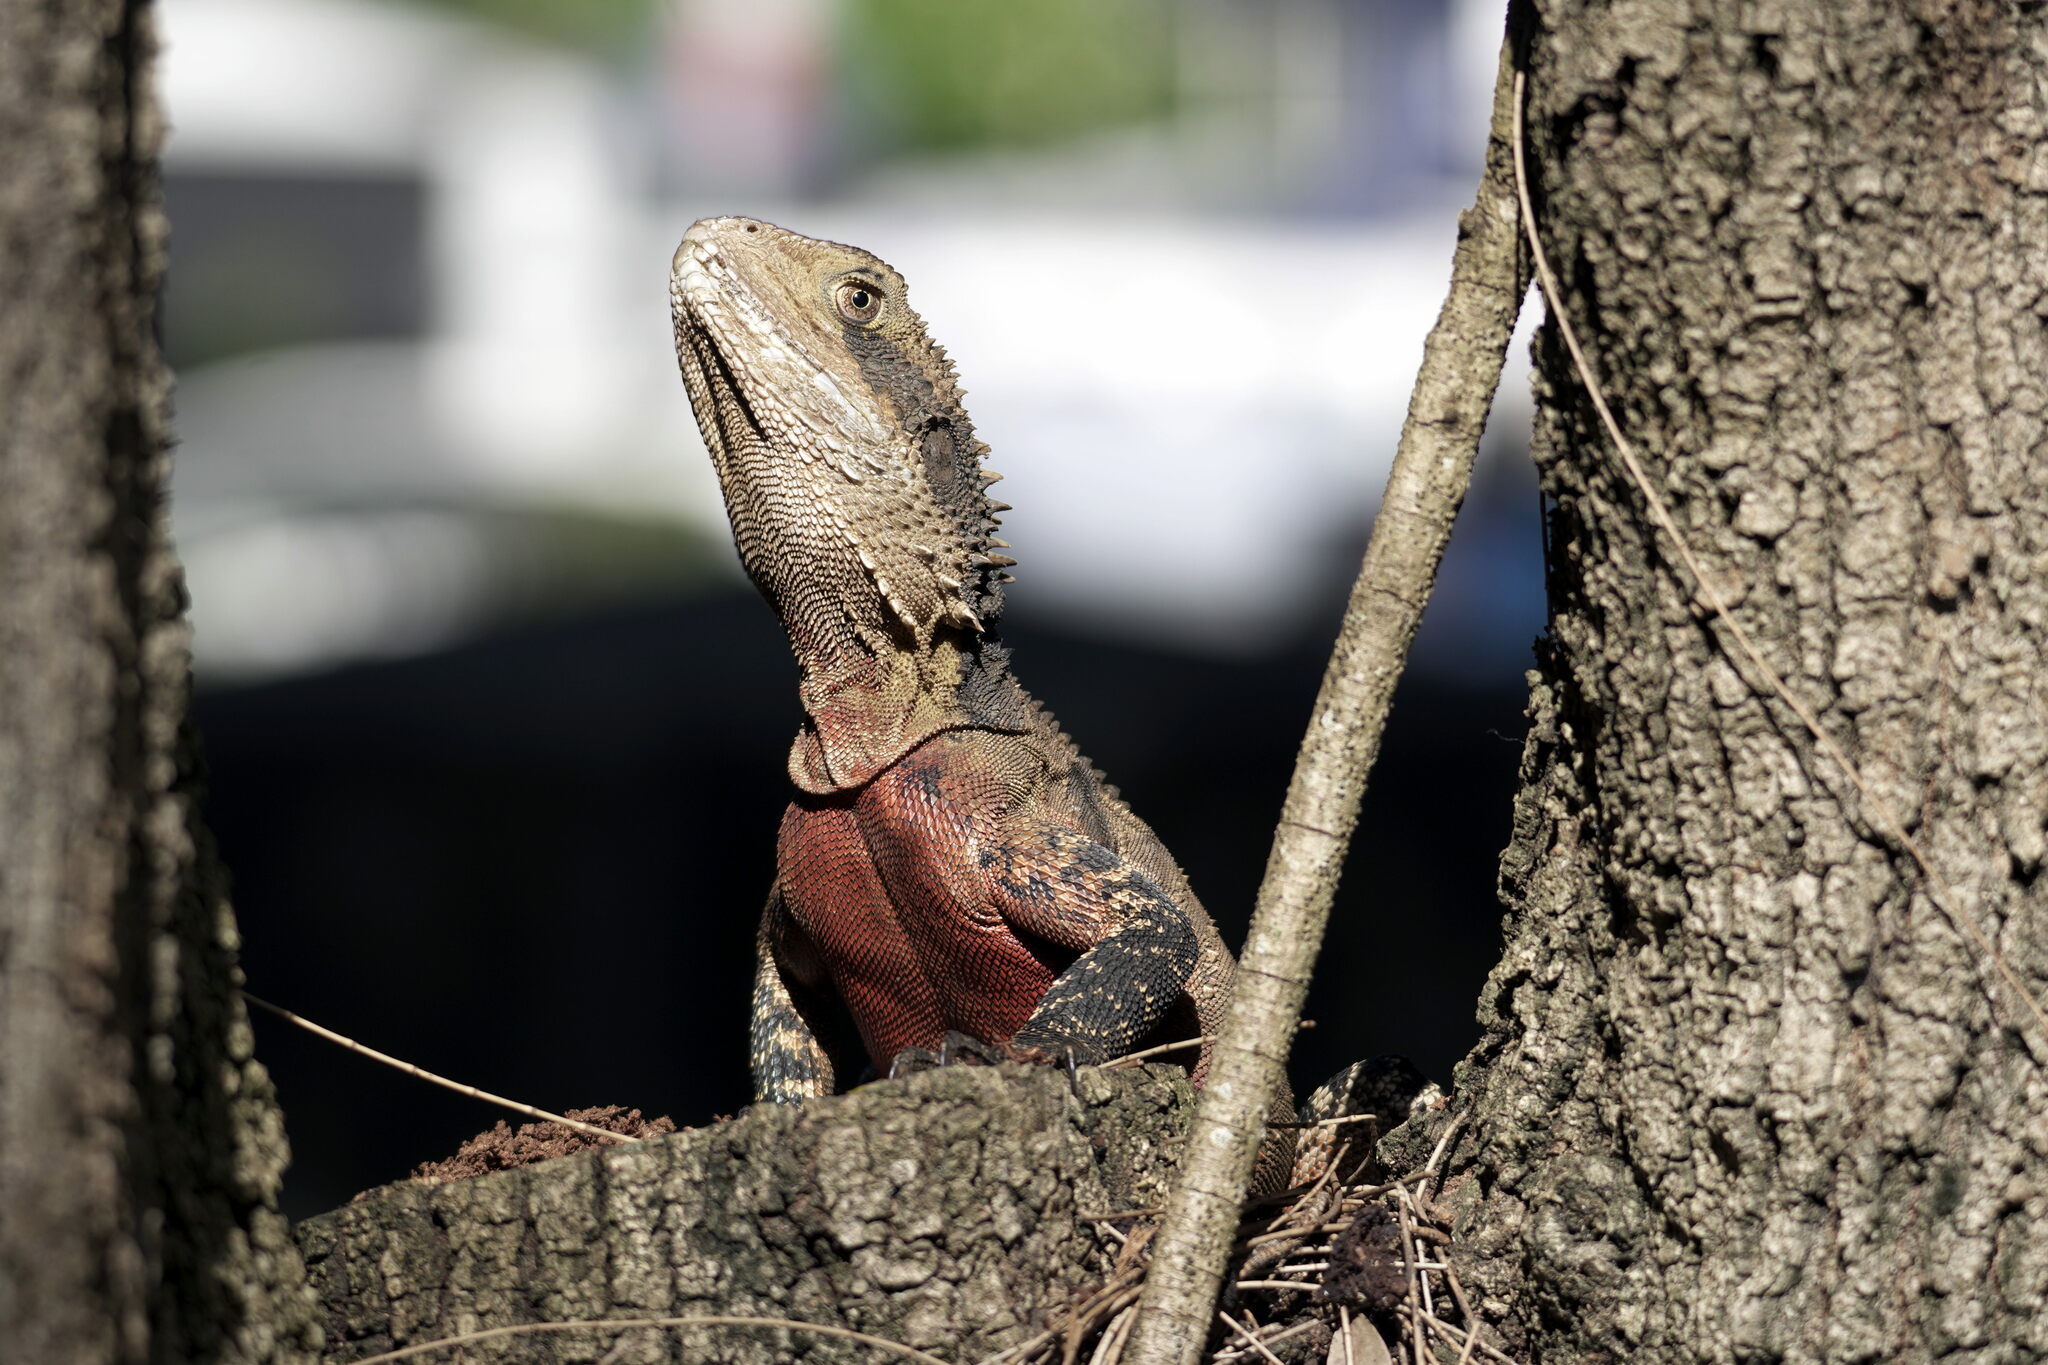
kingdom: Animalia
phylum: Chordata
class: Squamata
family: Agamidae
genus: Intellagama
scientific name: Intellagama lesueurii
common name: Eastern water dragon
